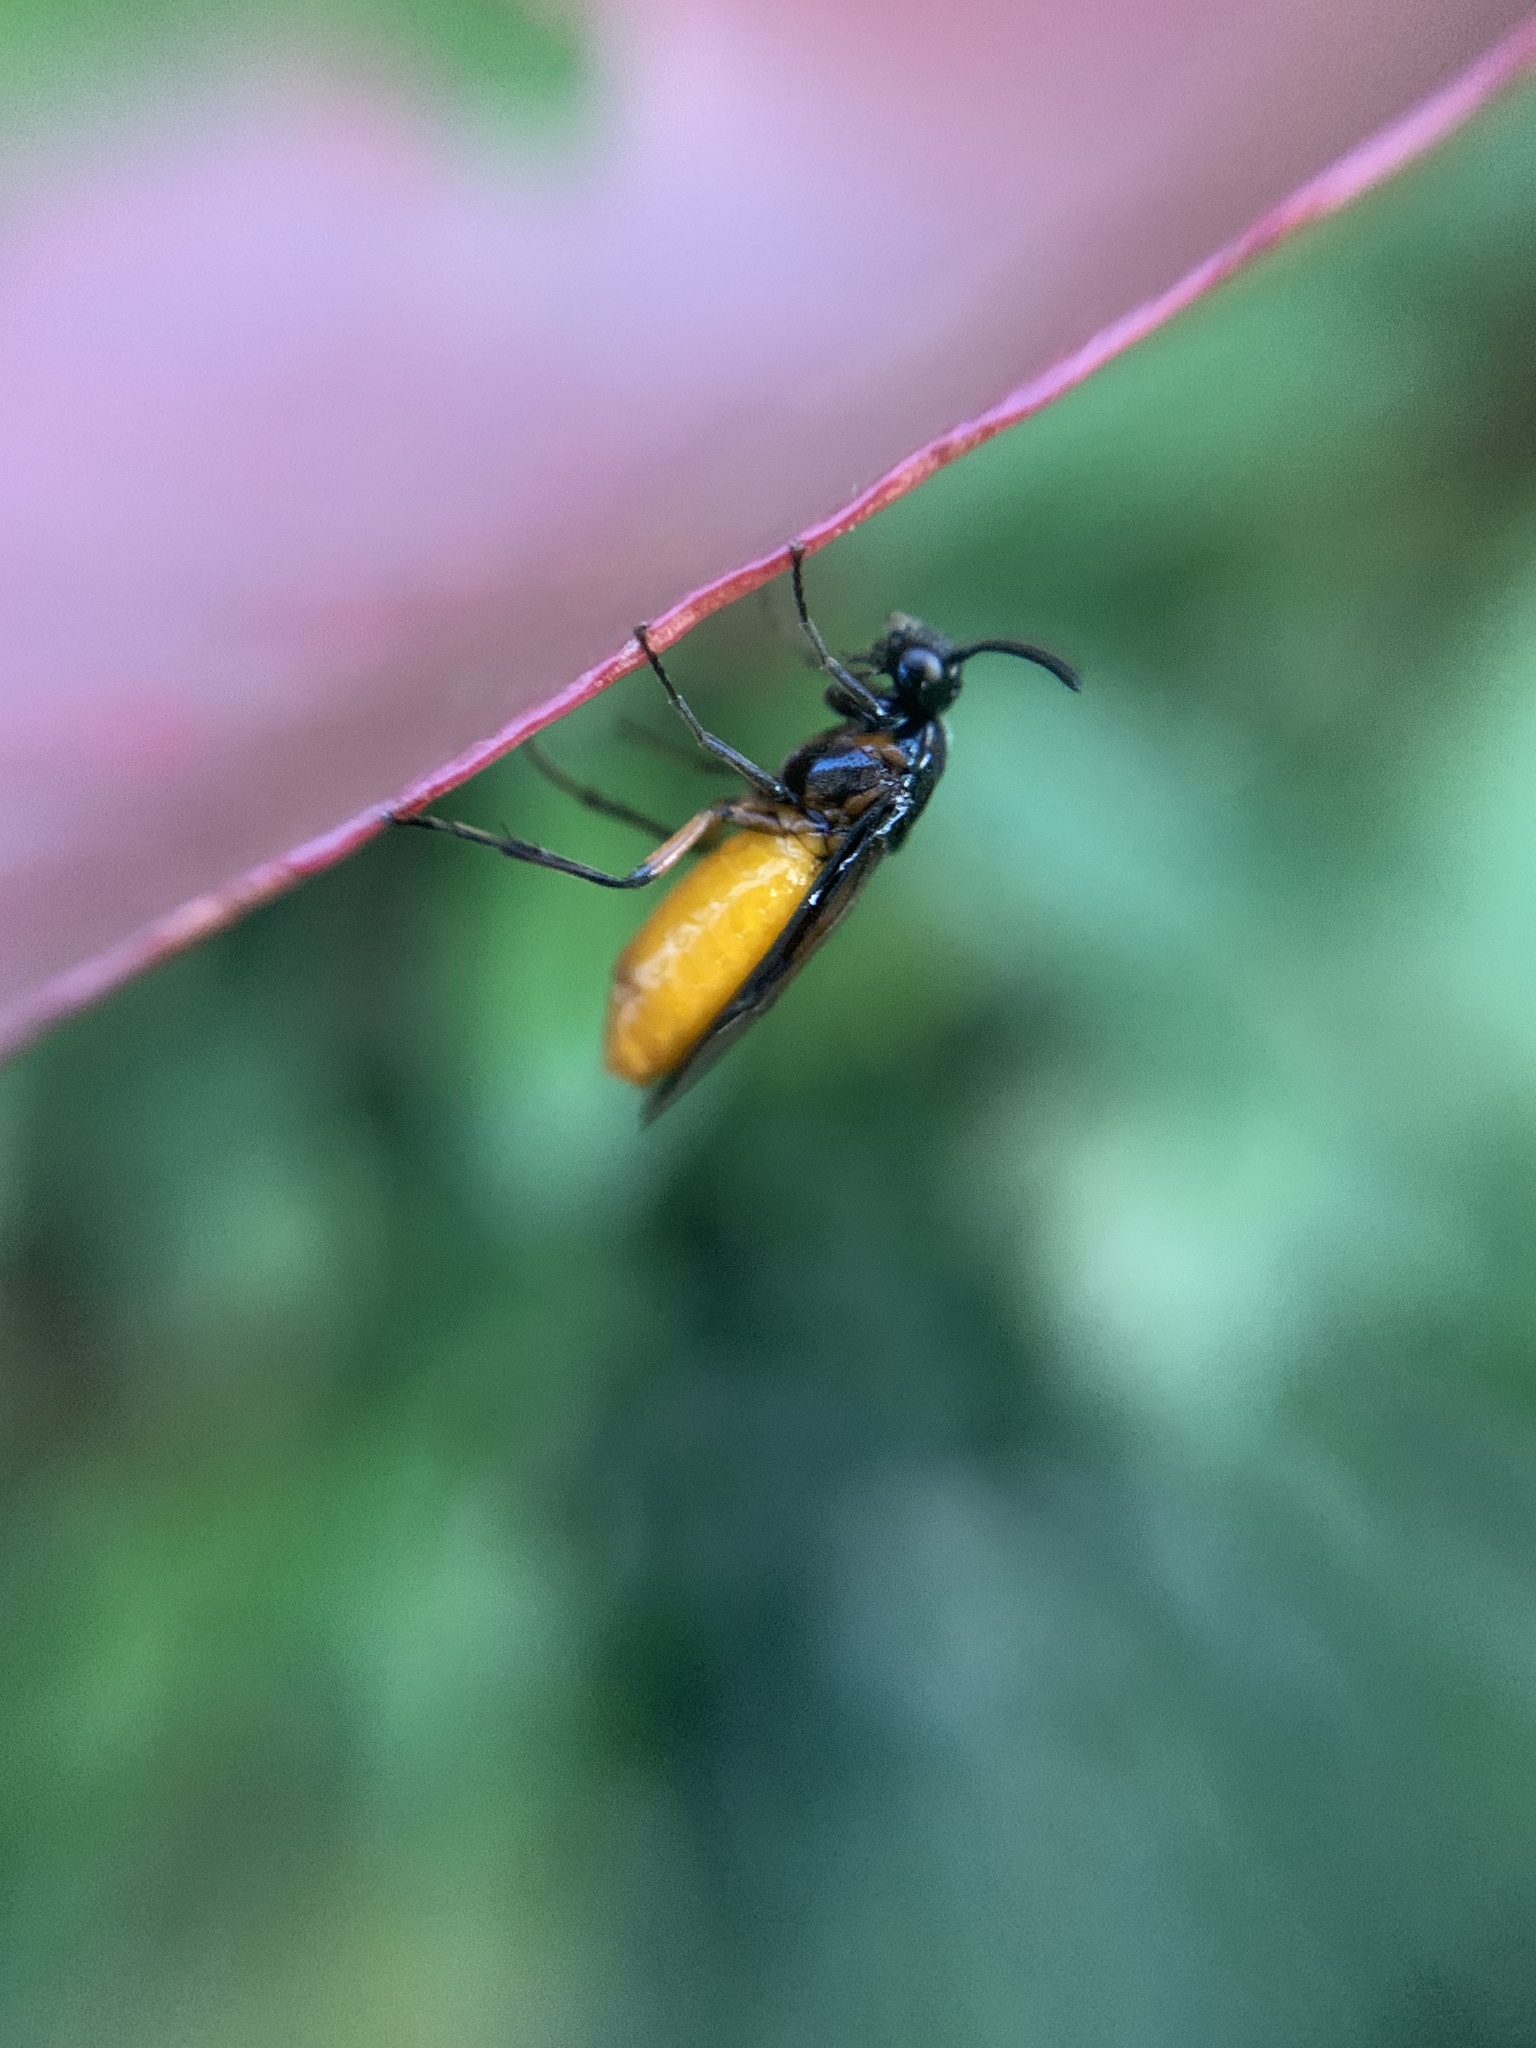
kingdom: Animalia
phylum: Arthropoda
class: Insecta
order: Hymenoptera
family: Argidae
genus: Arge
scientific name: Arge pagana
